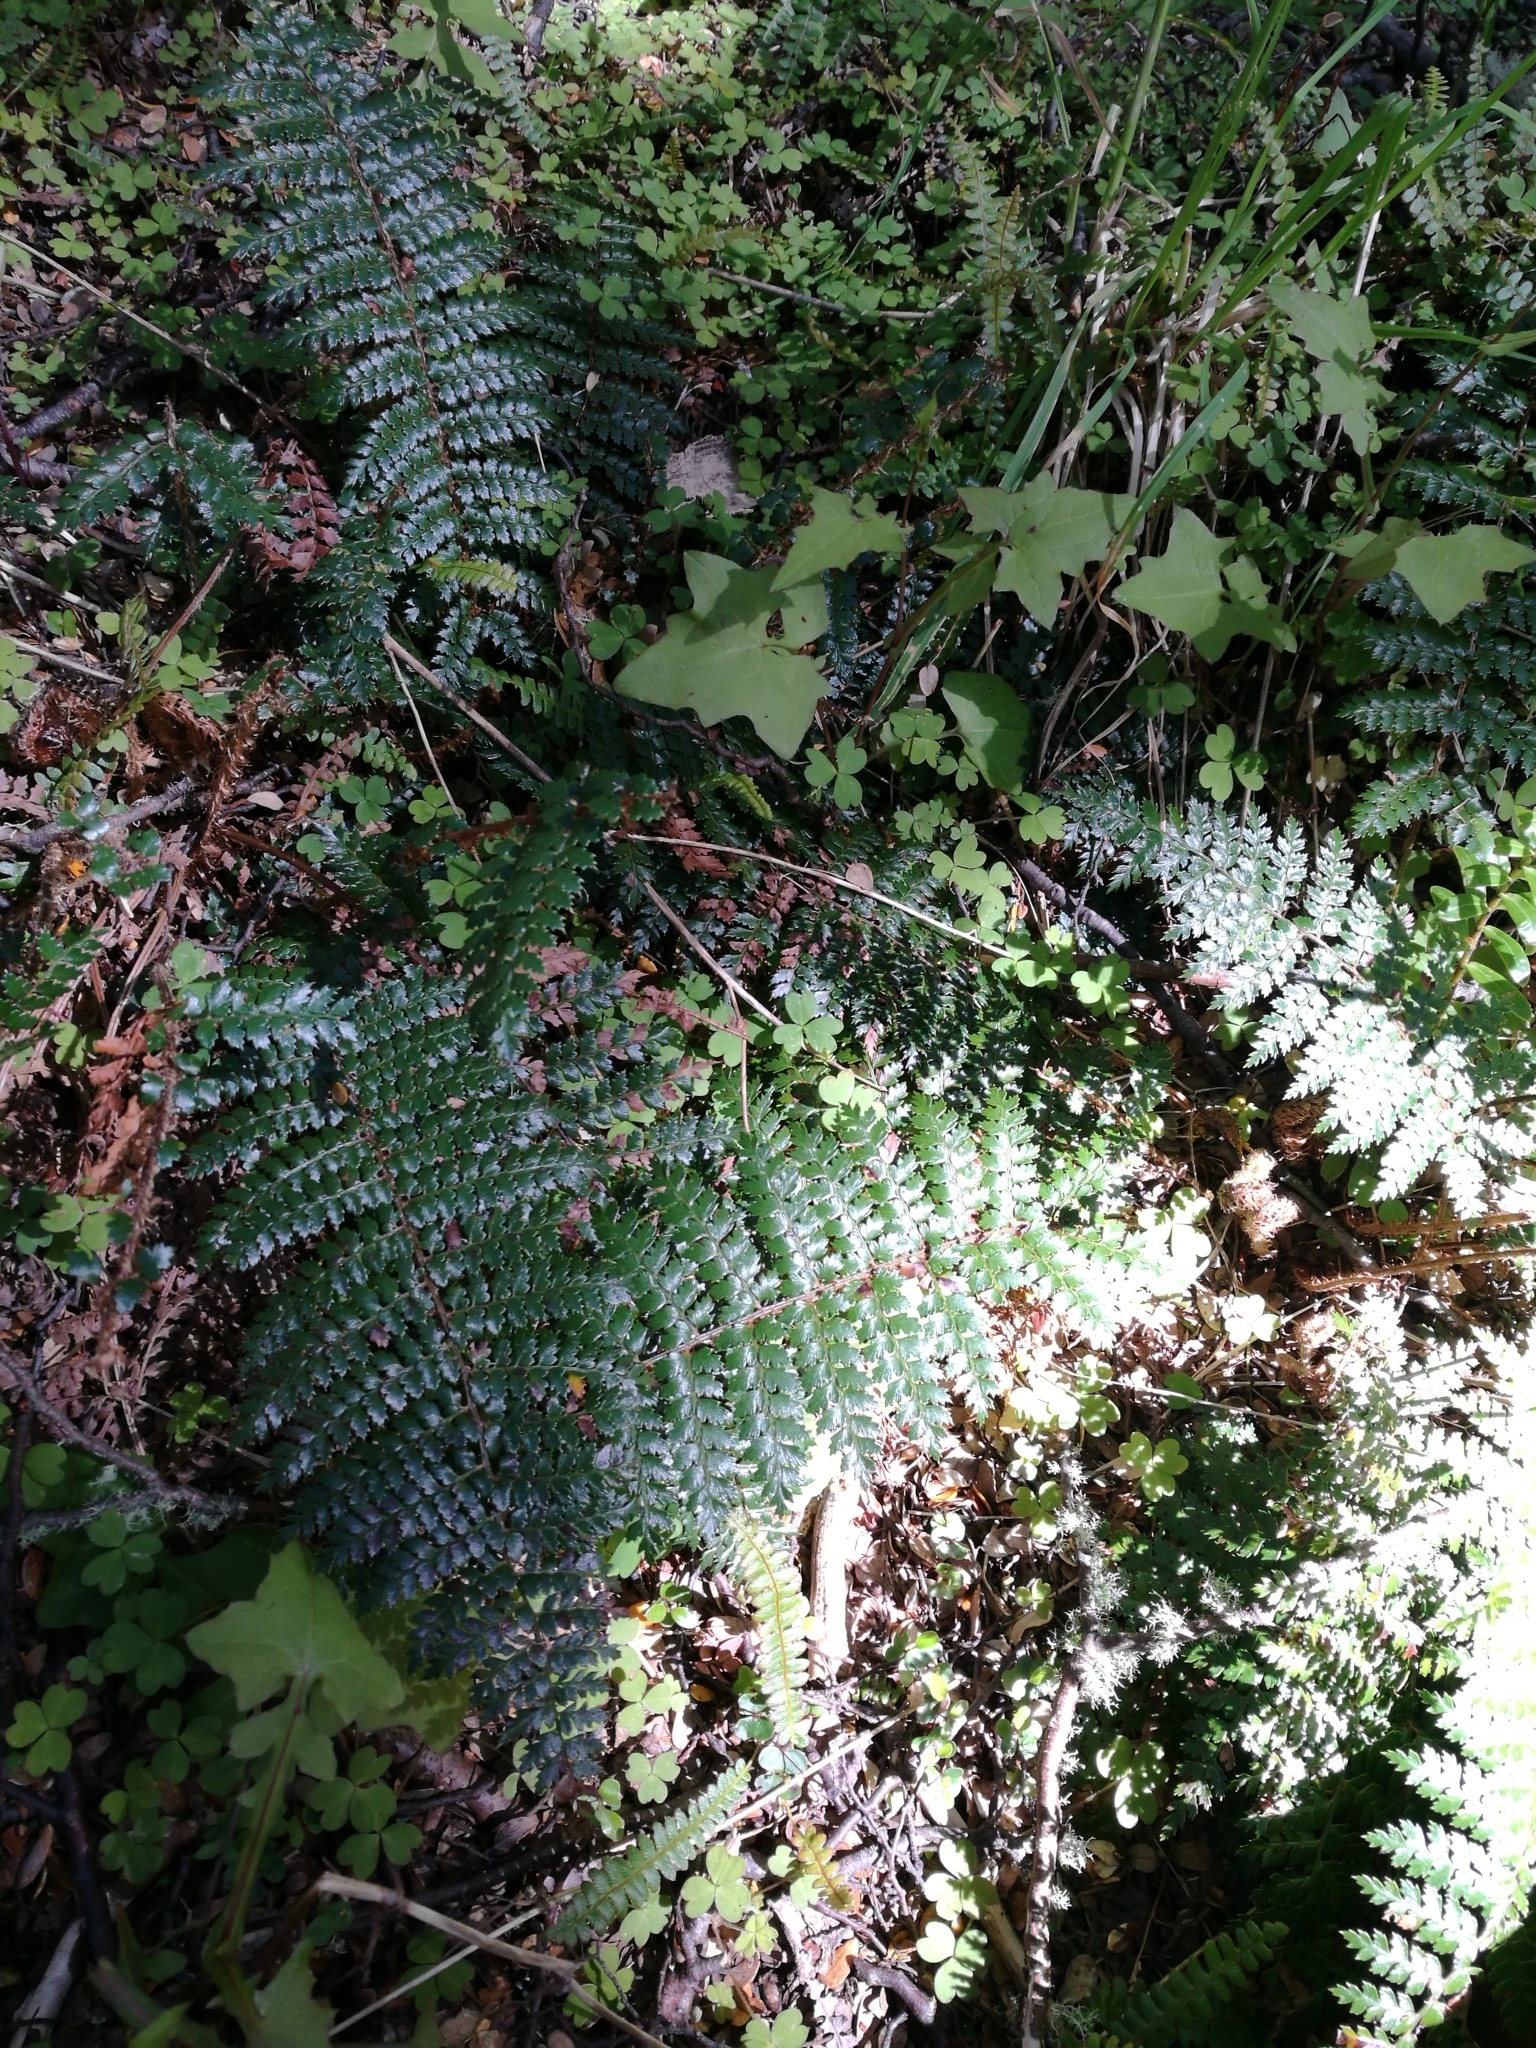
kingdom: Plantae
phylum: Tracheophyta
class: Polypodiopsida
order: Polypodiales
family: Dryopteridaceae
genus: Polystichum
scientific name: Polystichum vestitum
